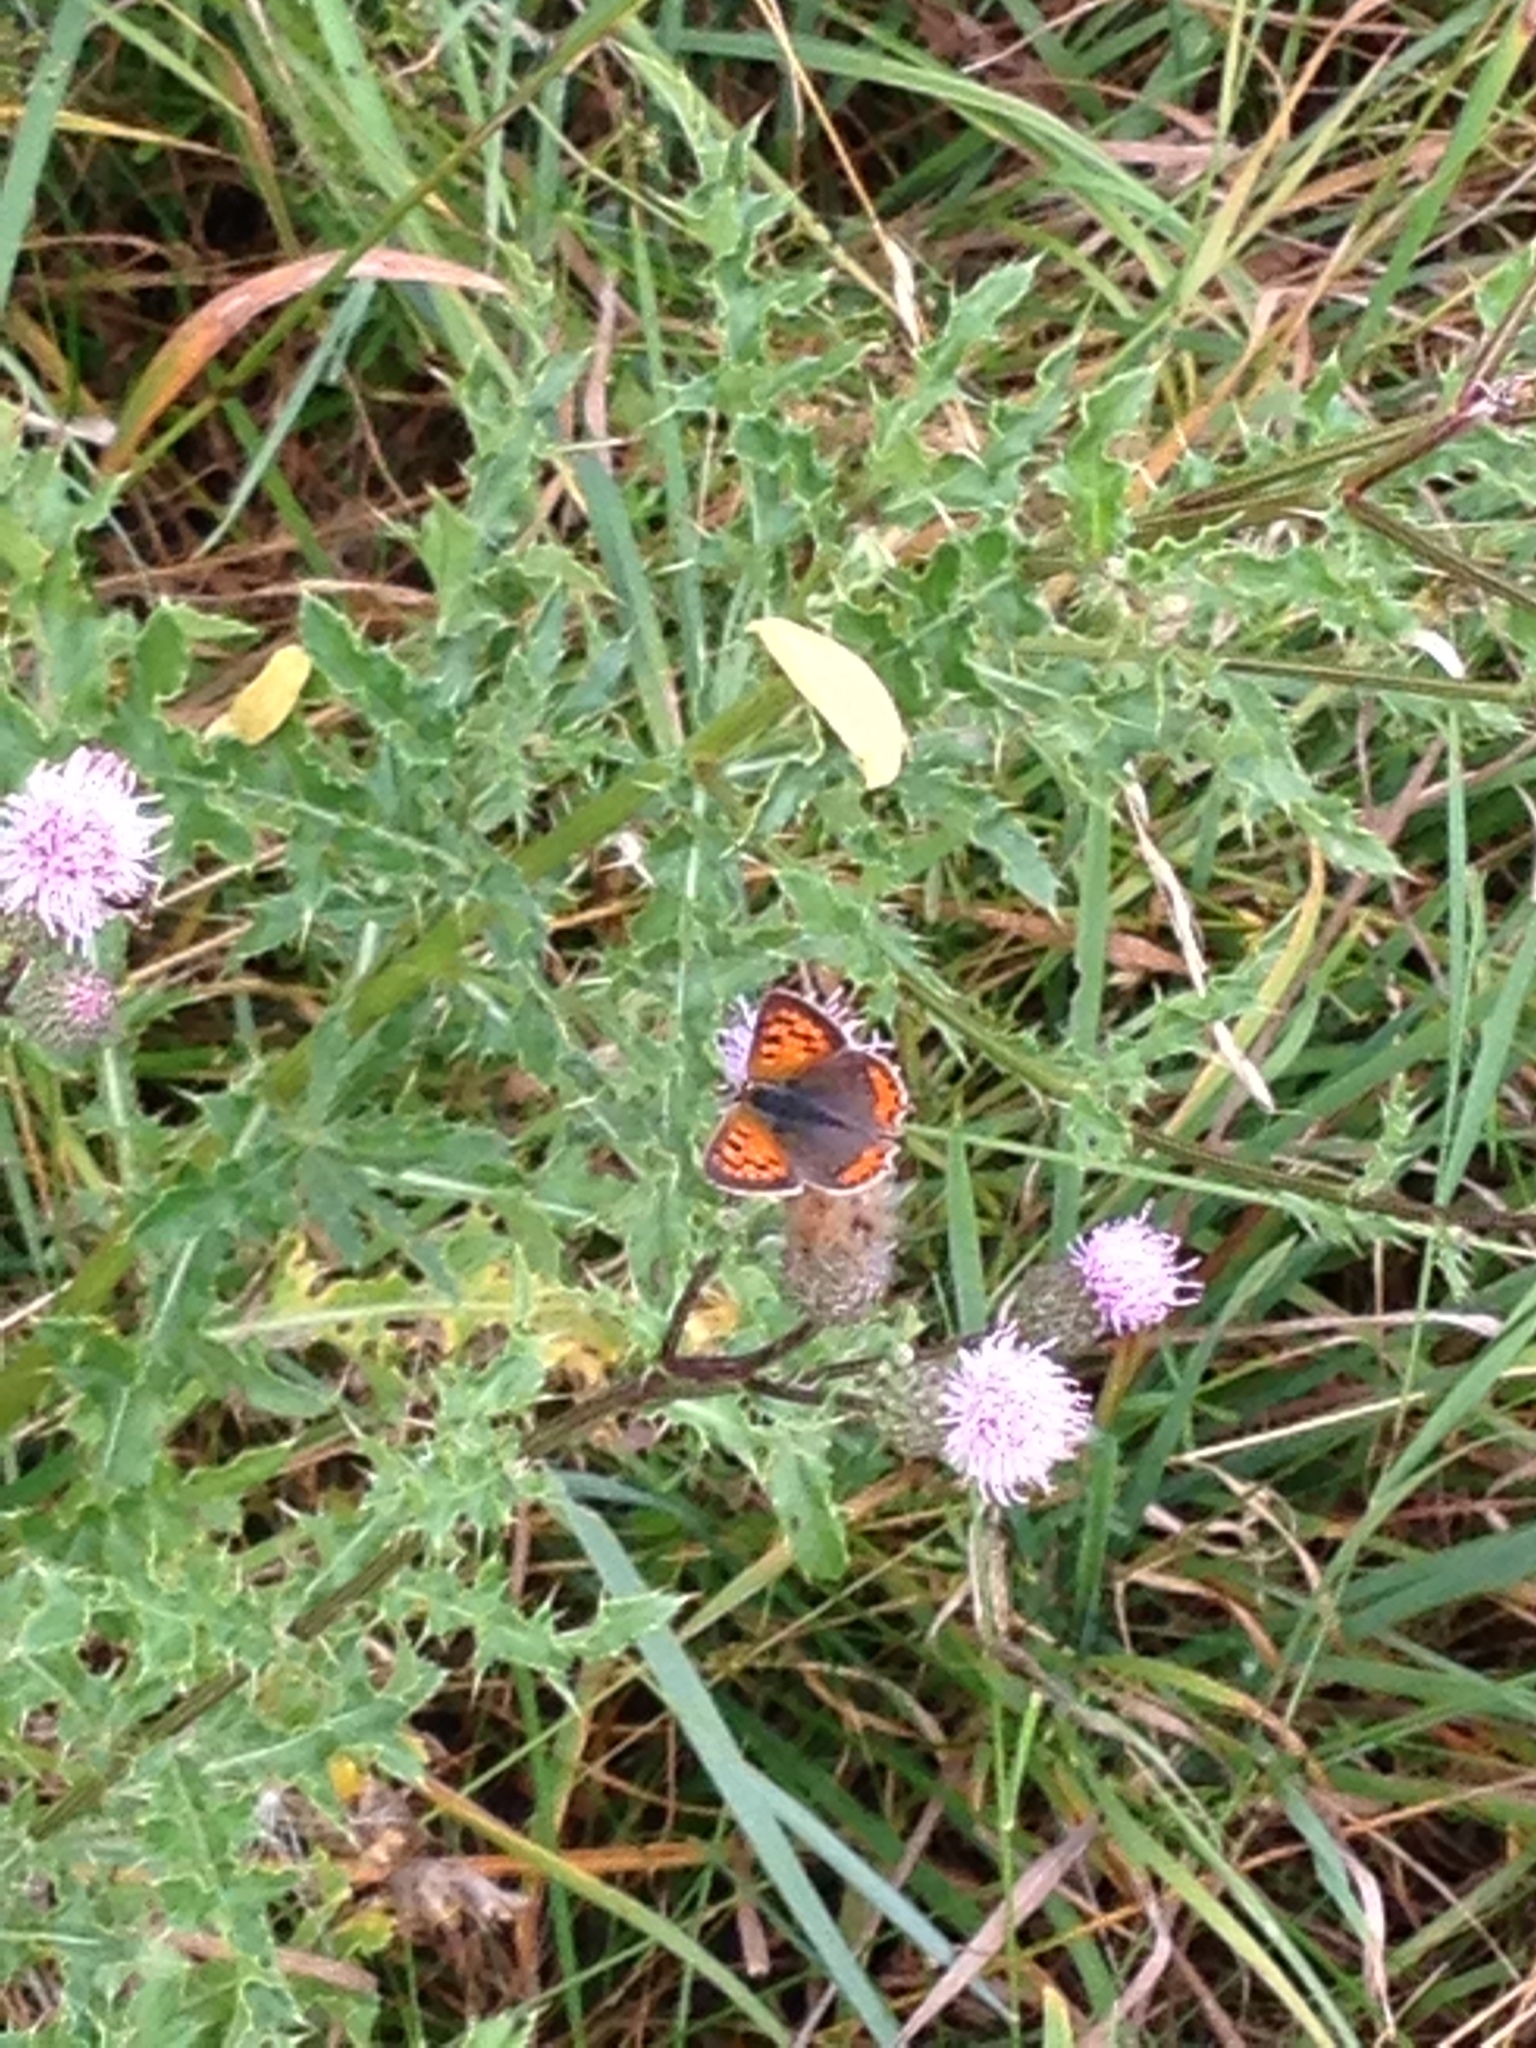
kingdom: Animalia
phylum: Arthropoda
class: Insecta
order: Lepidoptera
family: Lycaenidae
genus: Lycaena
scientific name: Lycaena phlaeas
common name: Small copper
